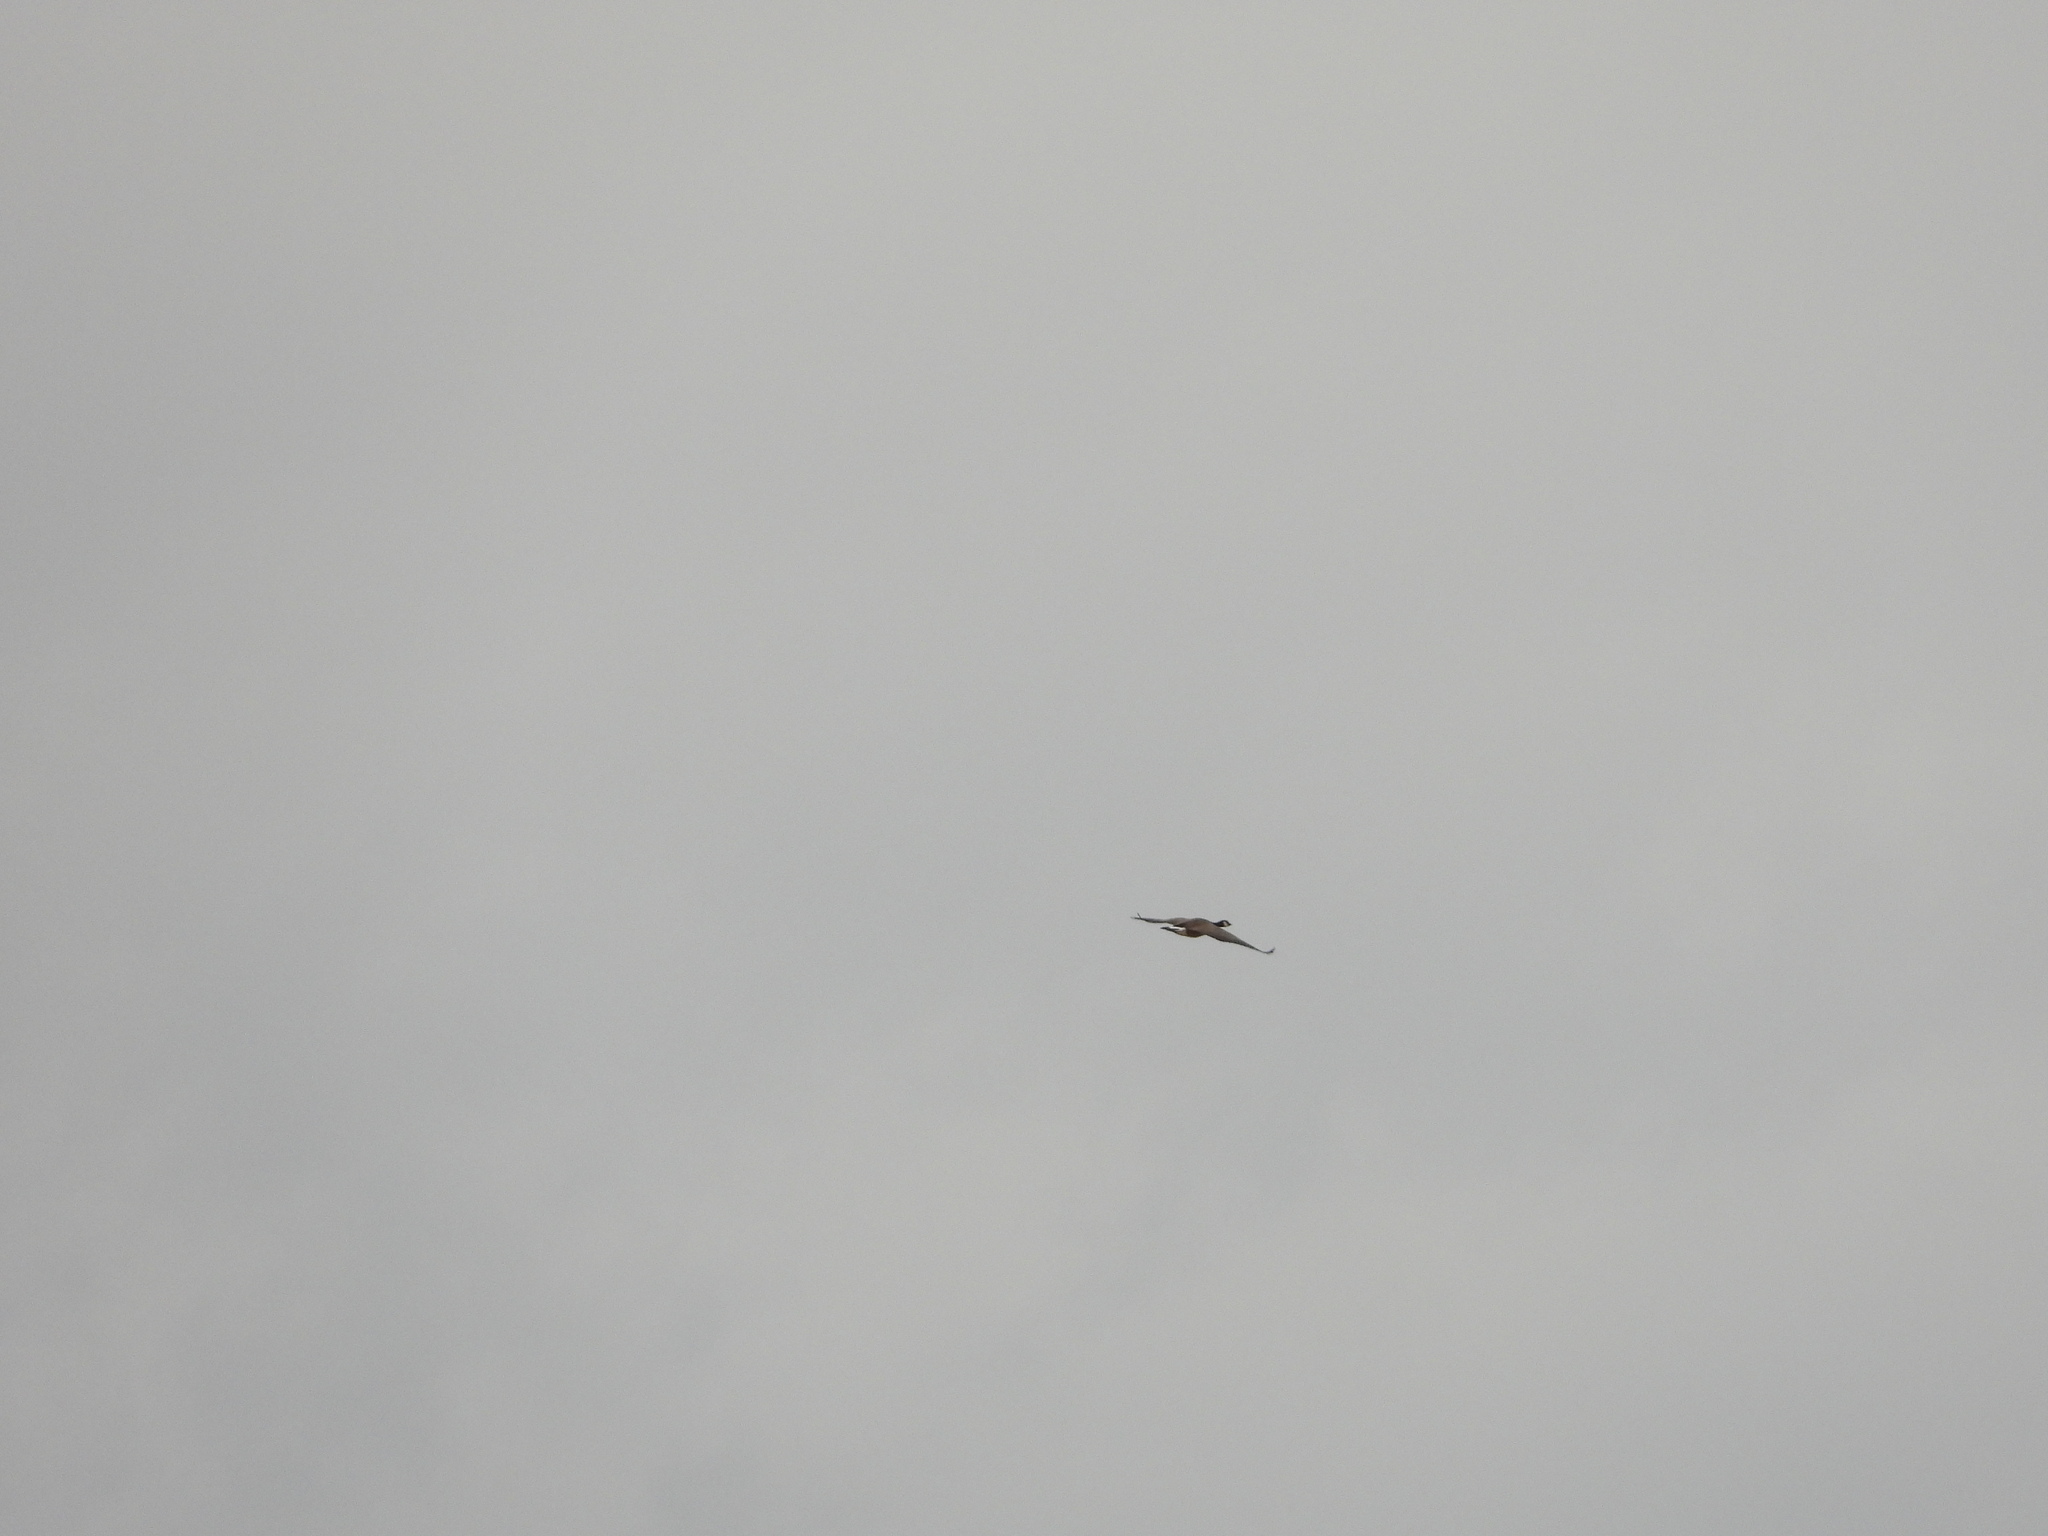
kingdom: Animalia
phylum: Chordata
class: Aves
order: Anseriformes
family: Anatidae
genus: Branta
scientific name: Branta canadensis
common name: Canada goose
